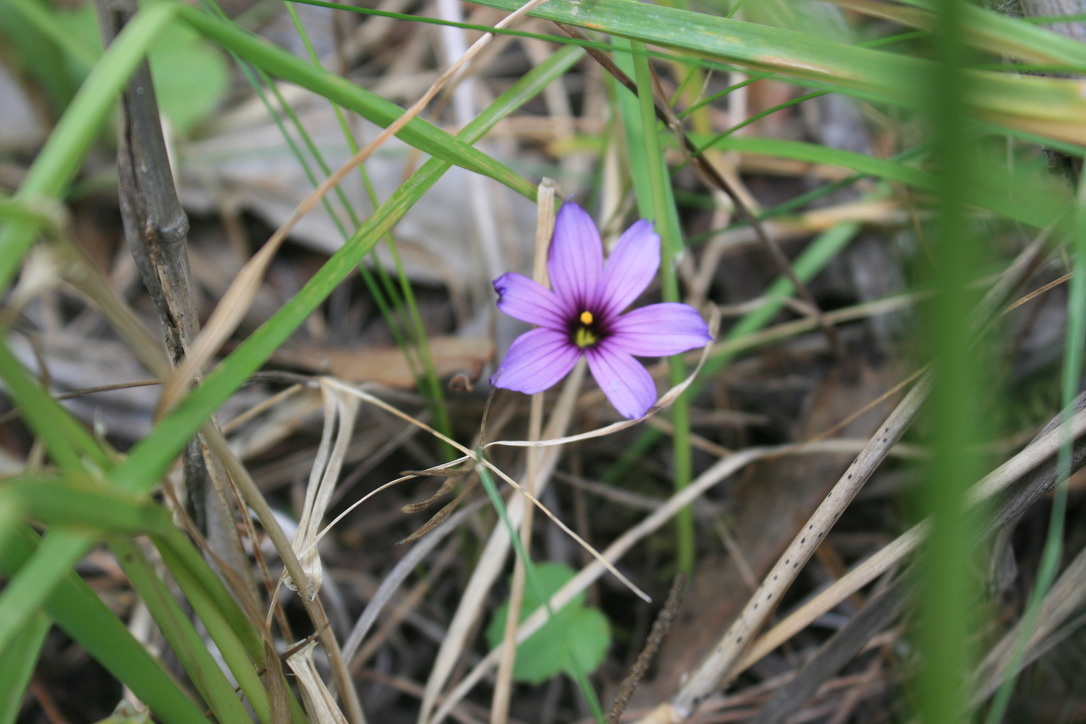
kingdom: Plantae
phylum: Tracheophyta
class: Liliopsida
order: Asparagales
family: Iridaceae
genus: Sisyrinchium
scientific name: Sisyrinchium bellum
